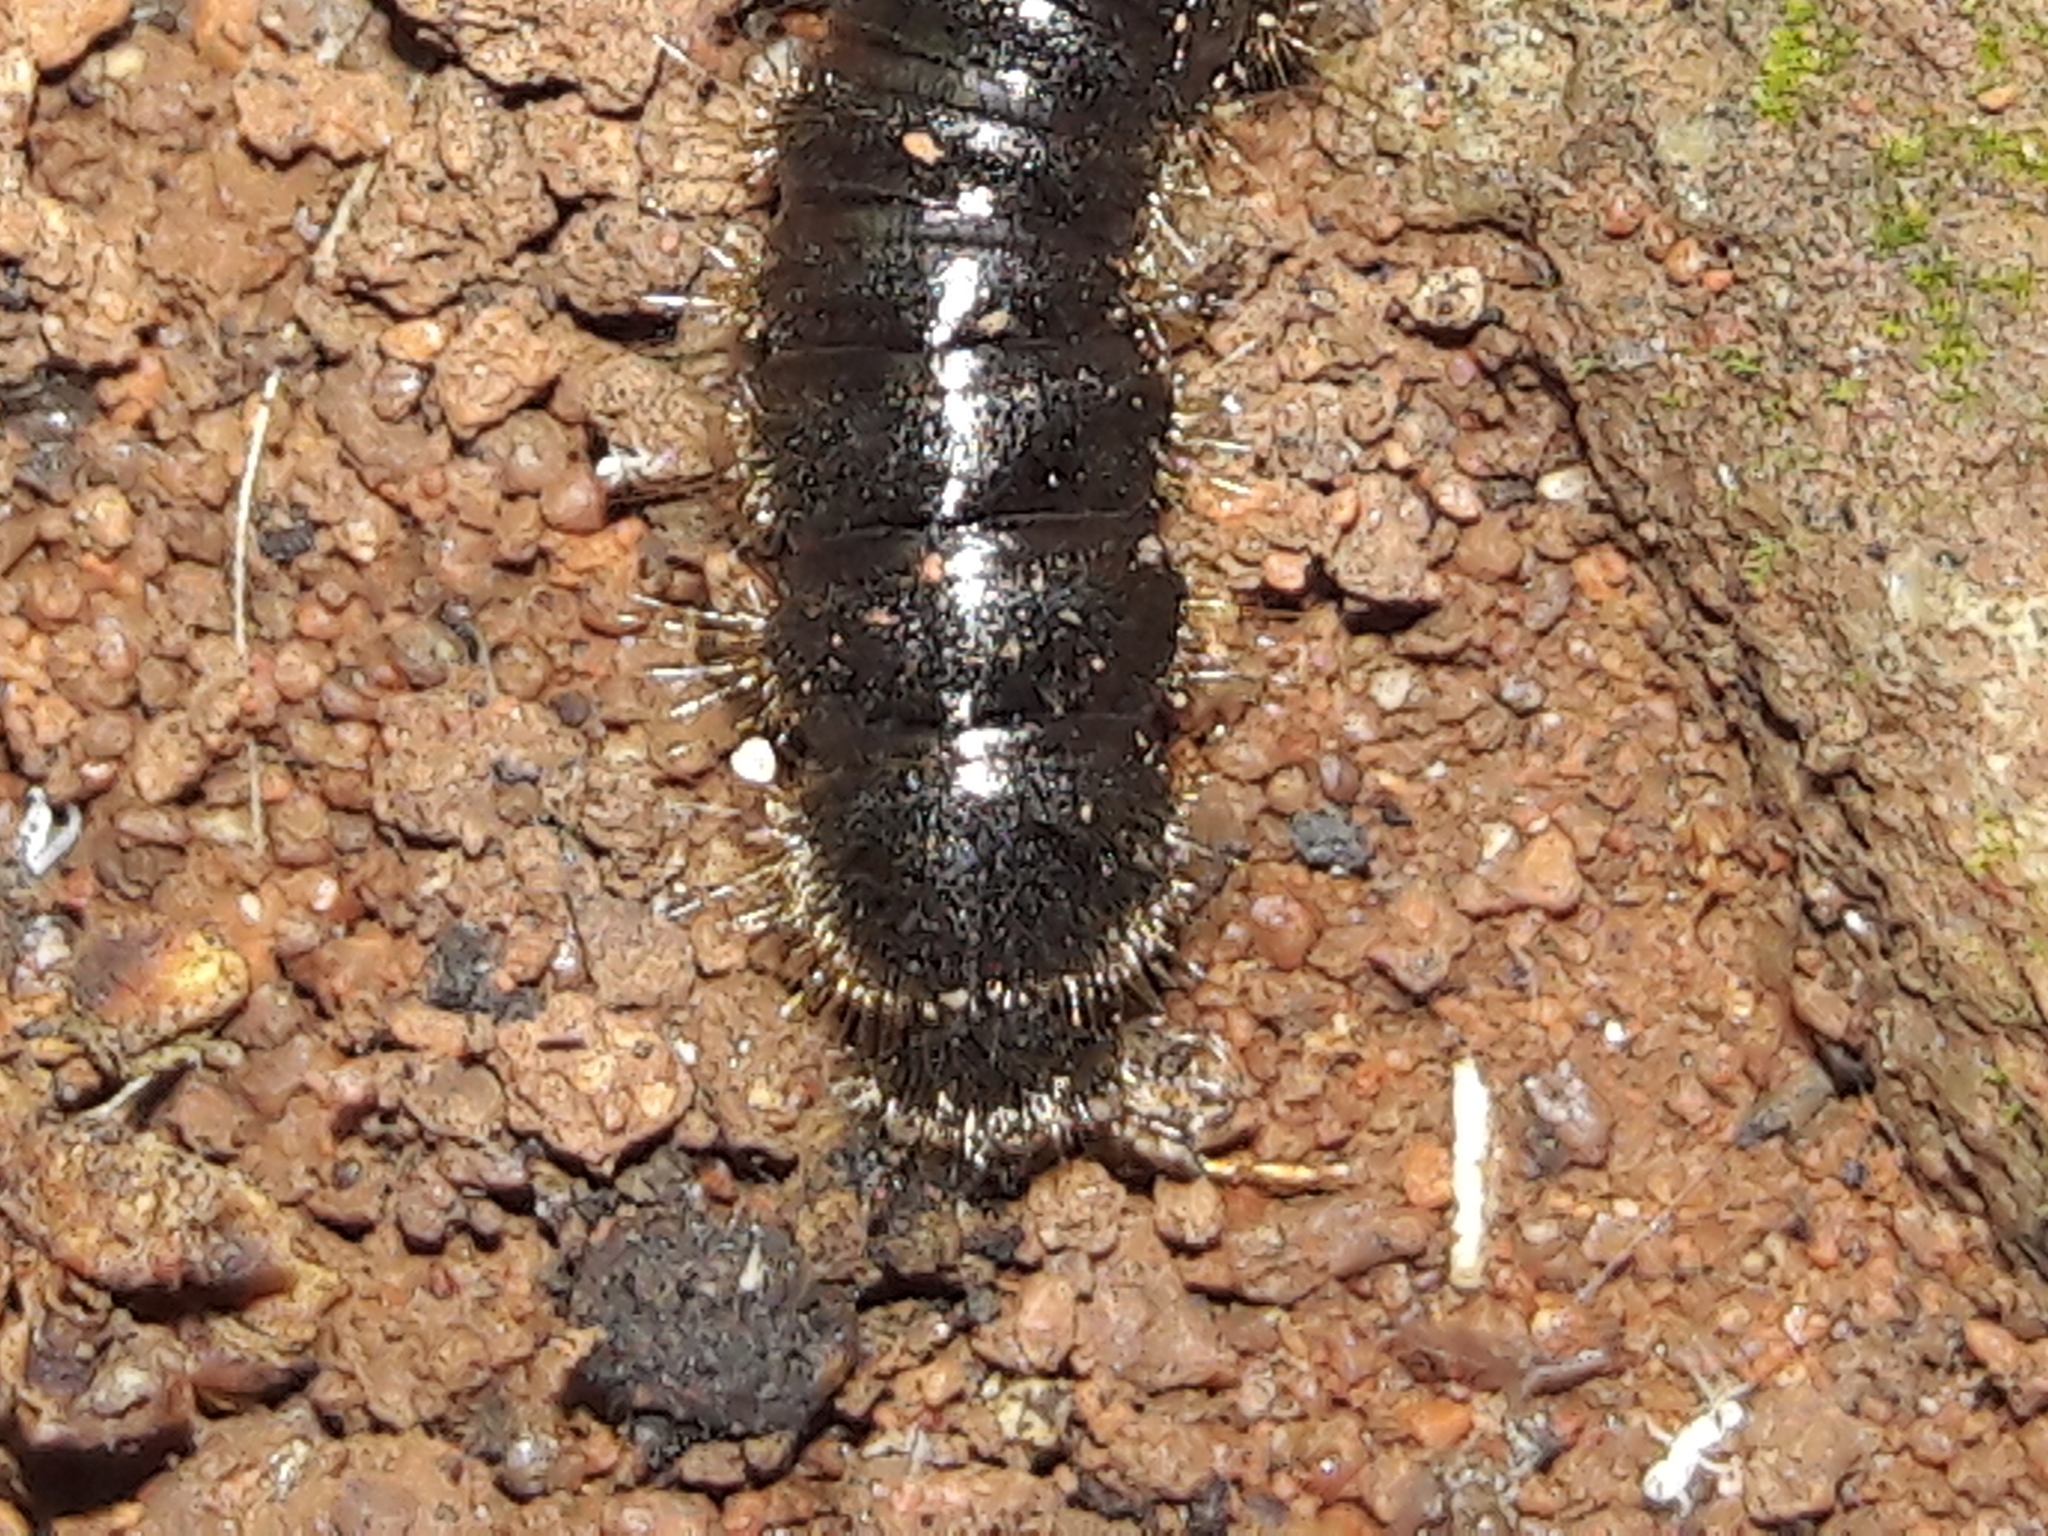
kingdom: Animalia
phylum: Arthropoda
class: Insecta
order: Coleoptera
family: Tenebrionidae
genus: Lagria
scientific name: Lagria villosa
